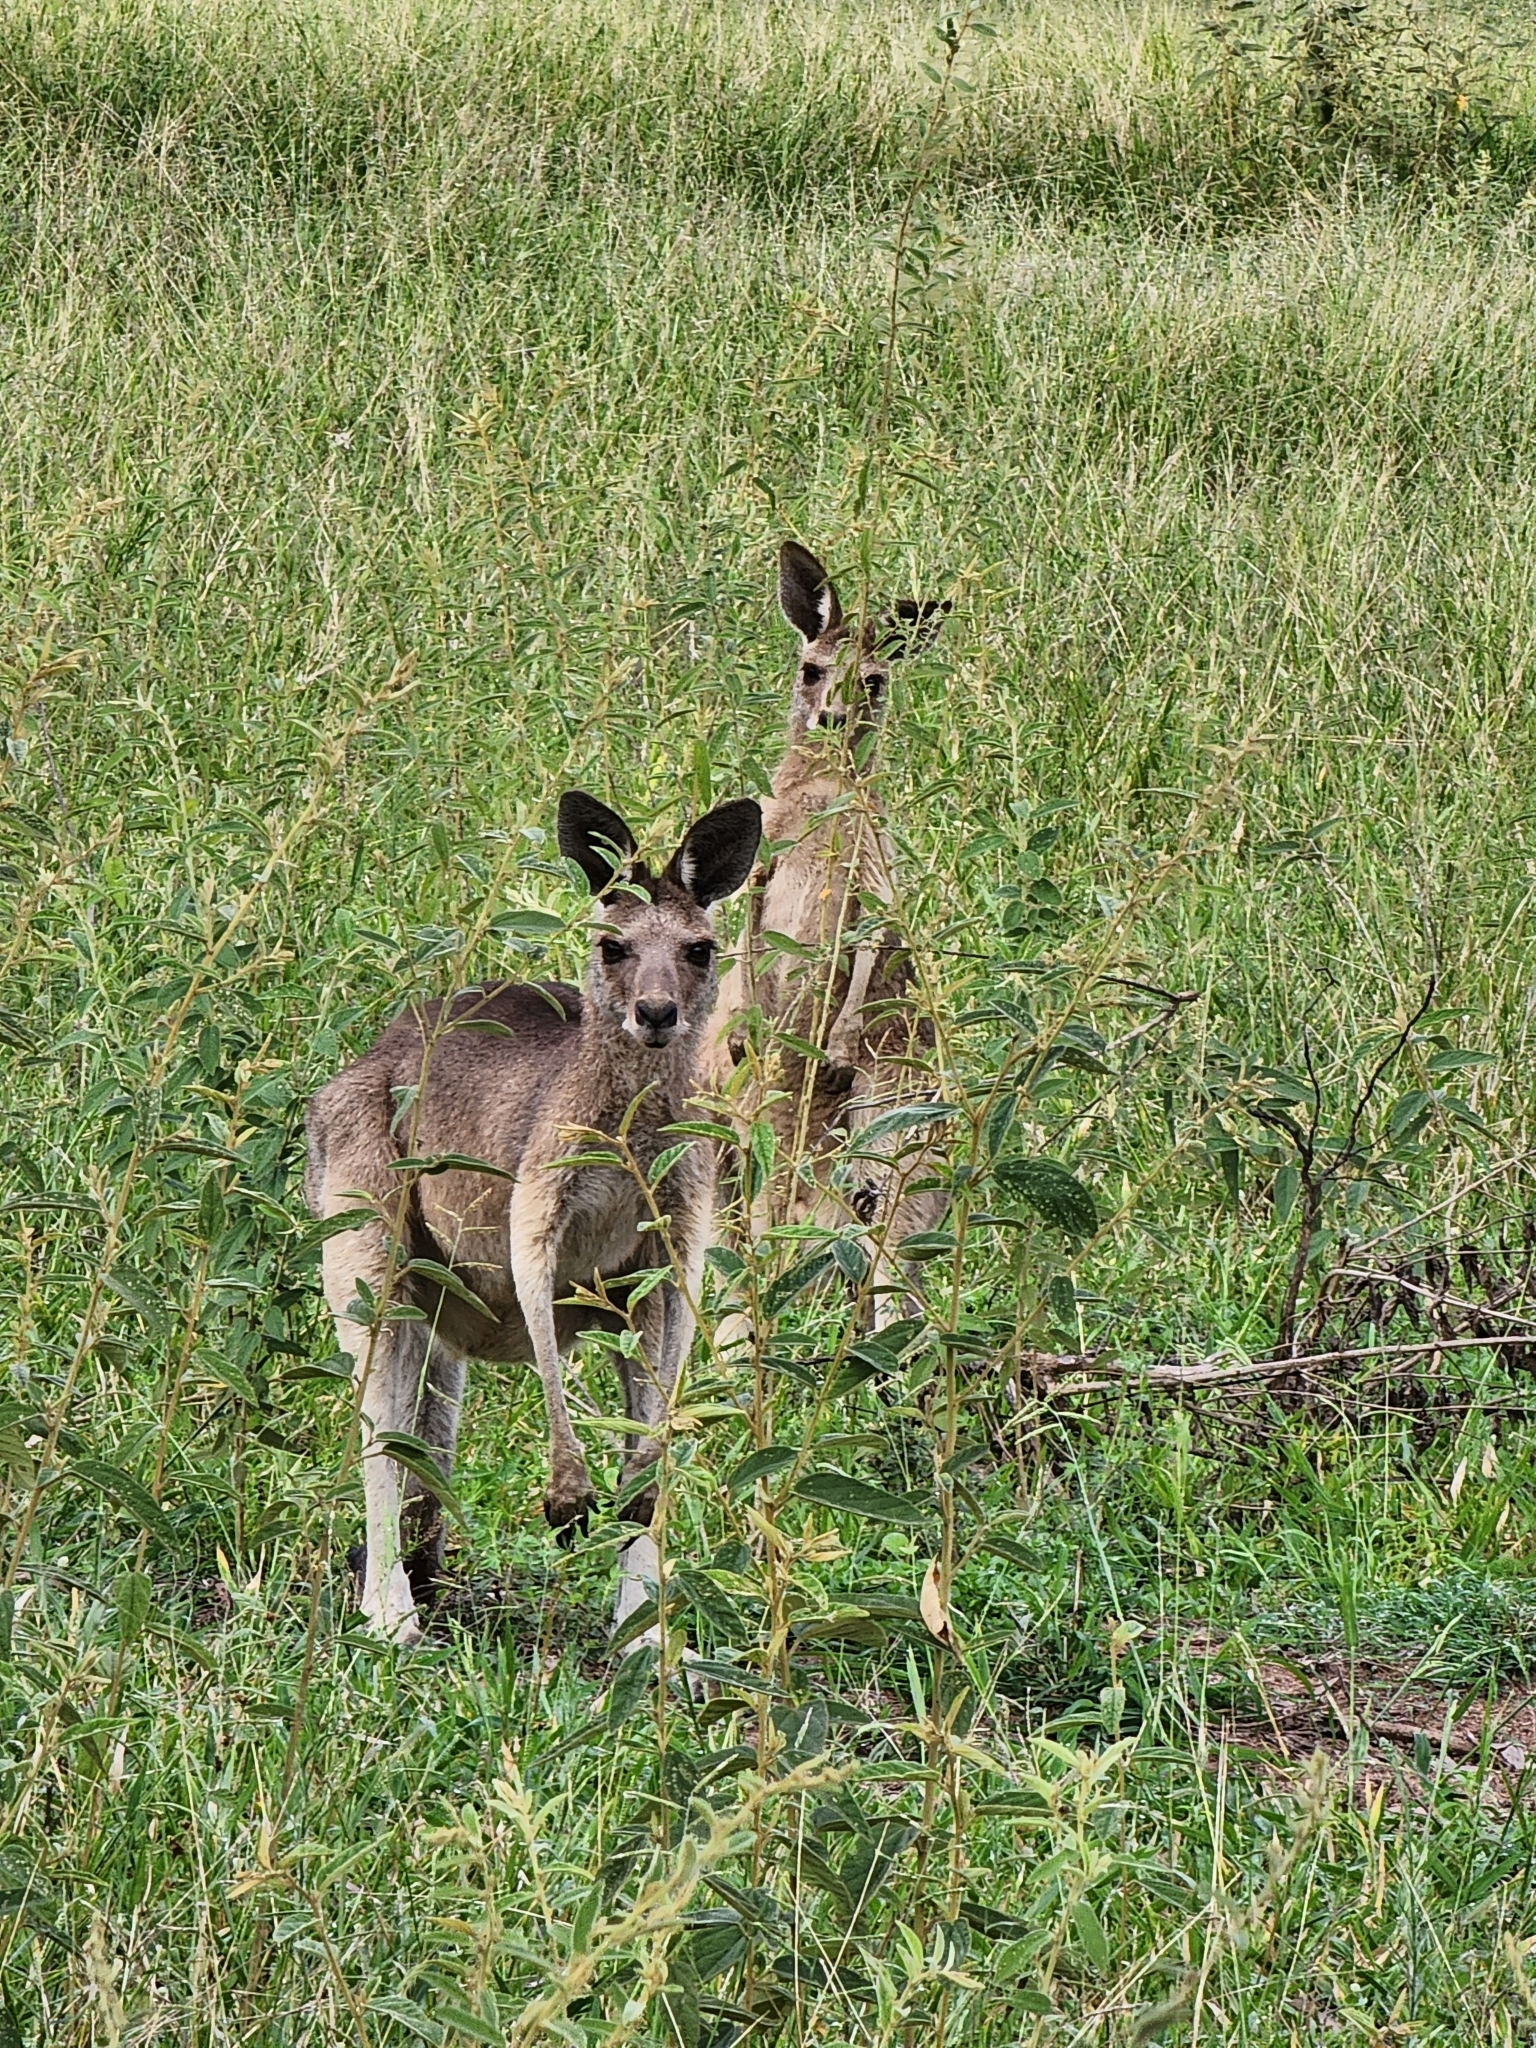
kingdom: Animalia
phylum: Chordata
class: Mammalia
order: Diprotodontia
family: Macropodidae
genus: Macropus
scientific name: Macropus giganteus
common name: Eastern grey kangaroo
